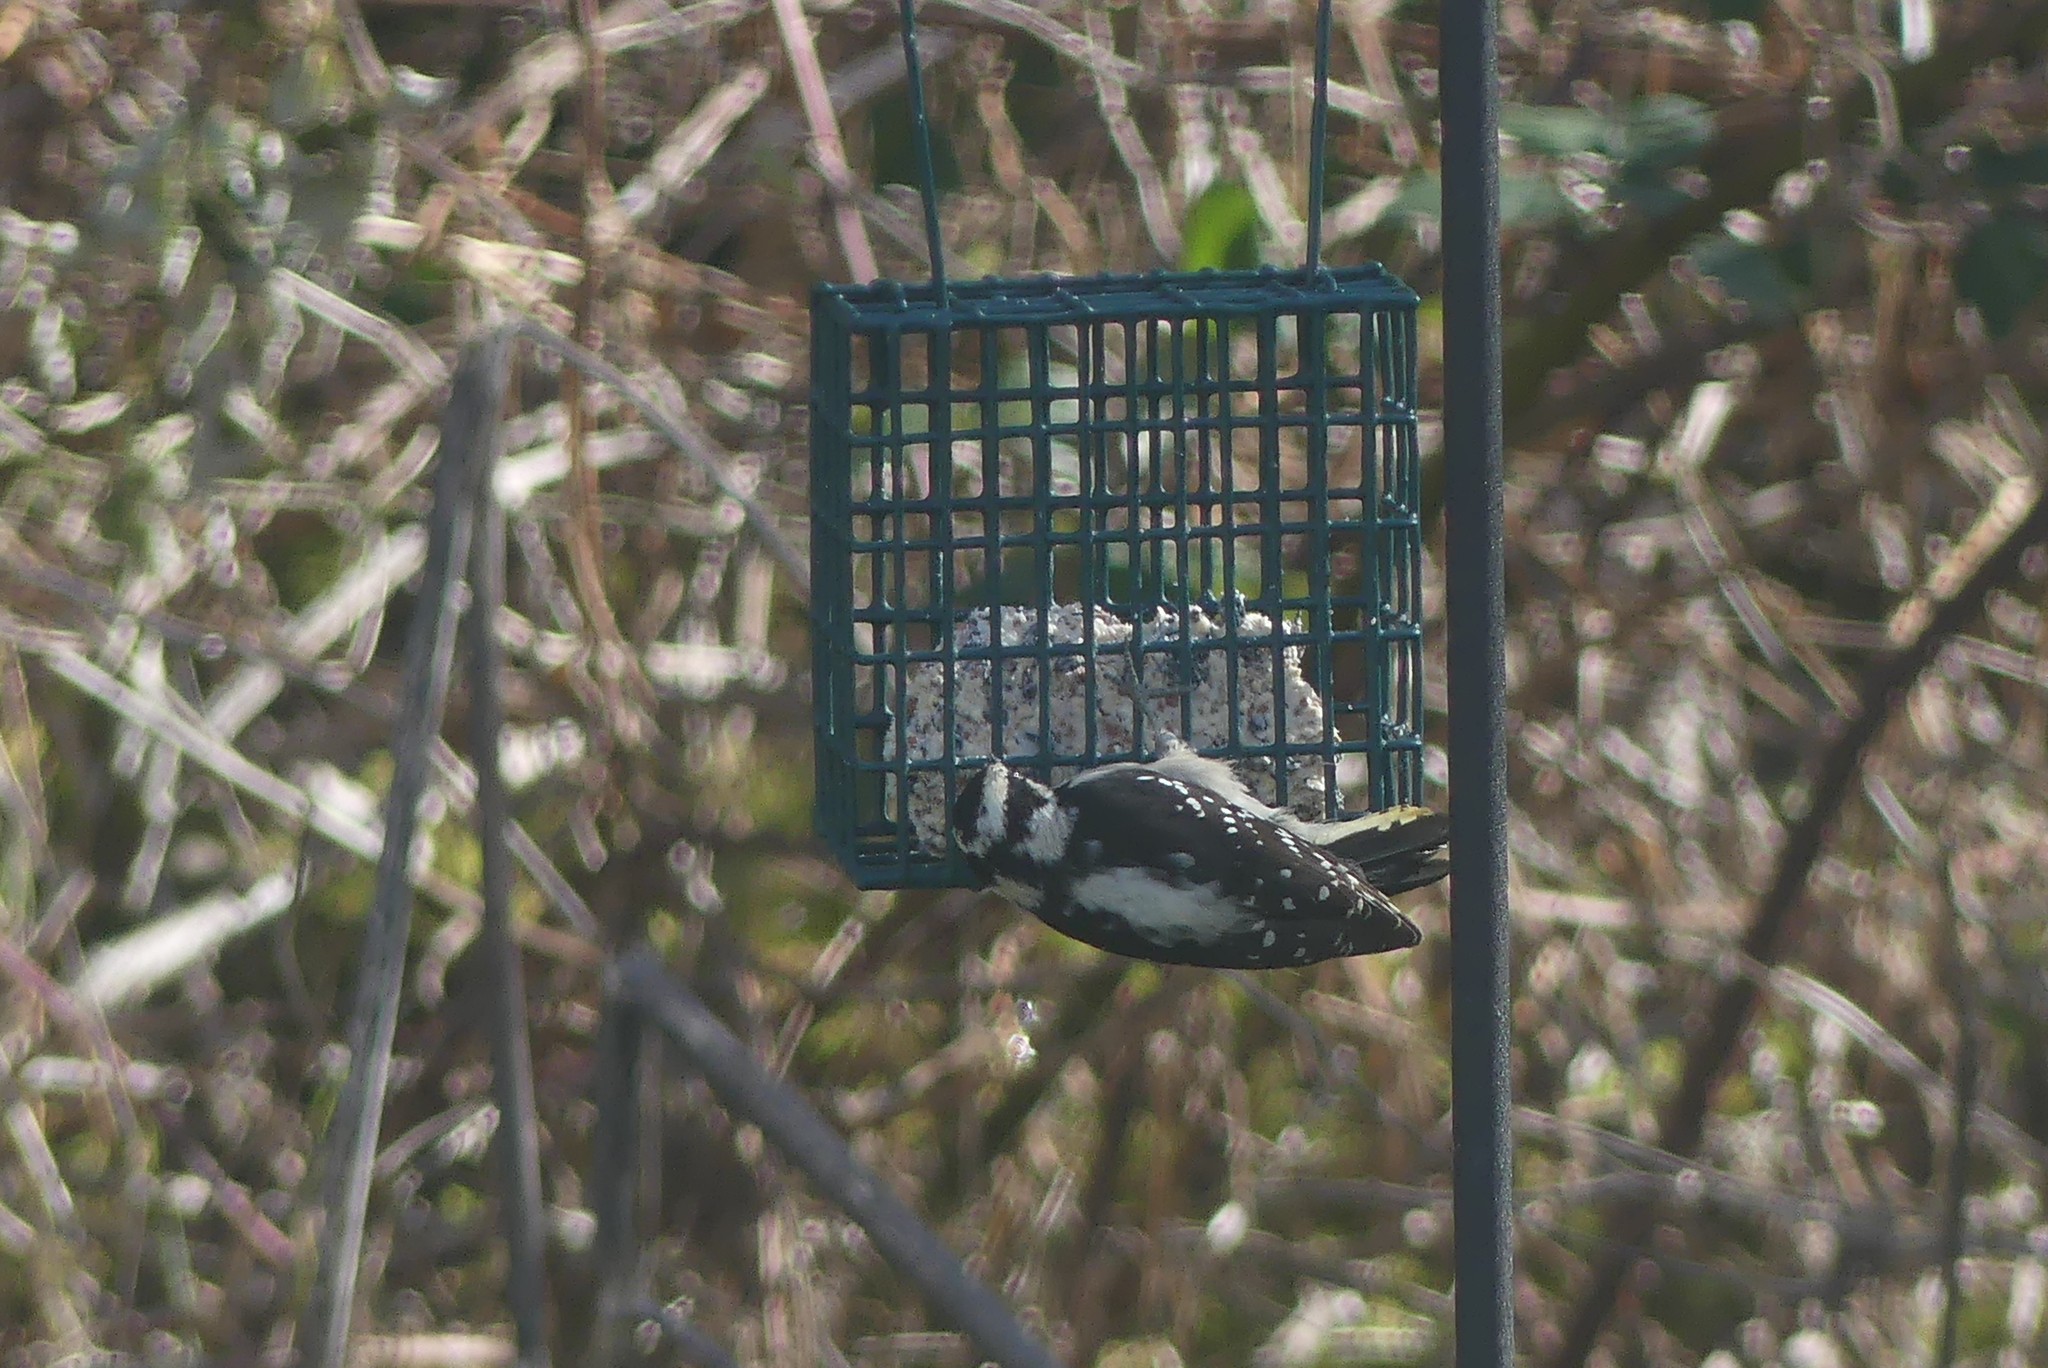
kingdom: Animalia
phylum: Chordata
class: Aves
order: Piciformes
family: Picidae
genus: Dryobates
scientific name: Dryobates pubescens
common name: Downy woodpecker
